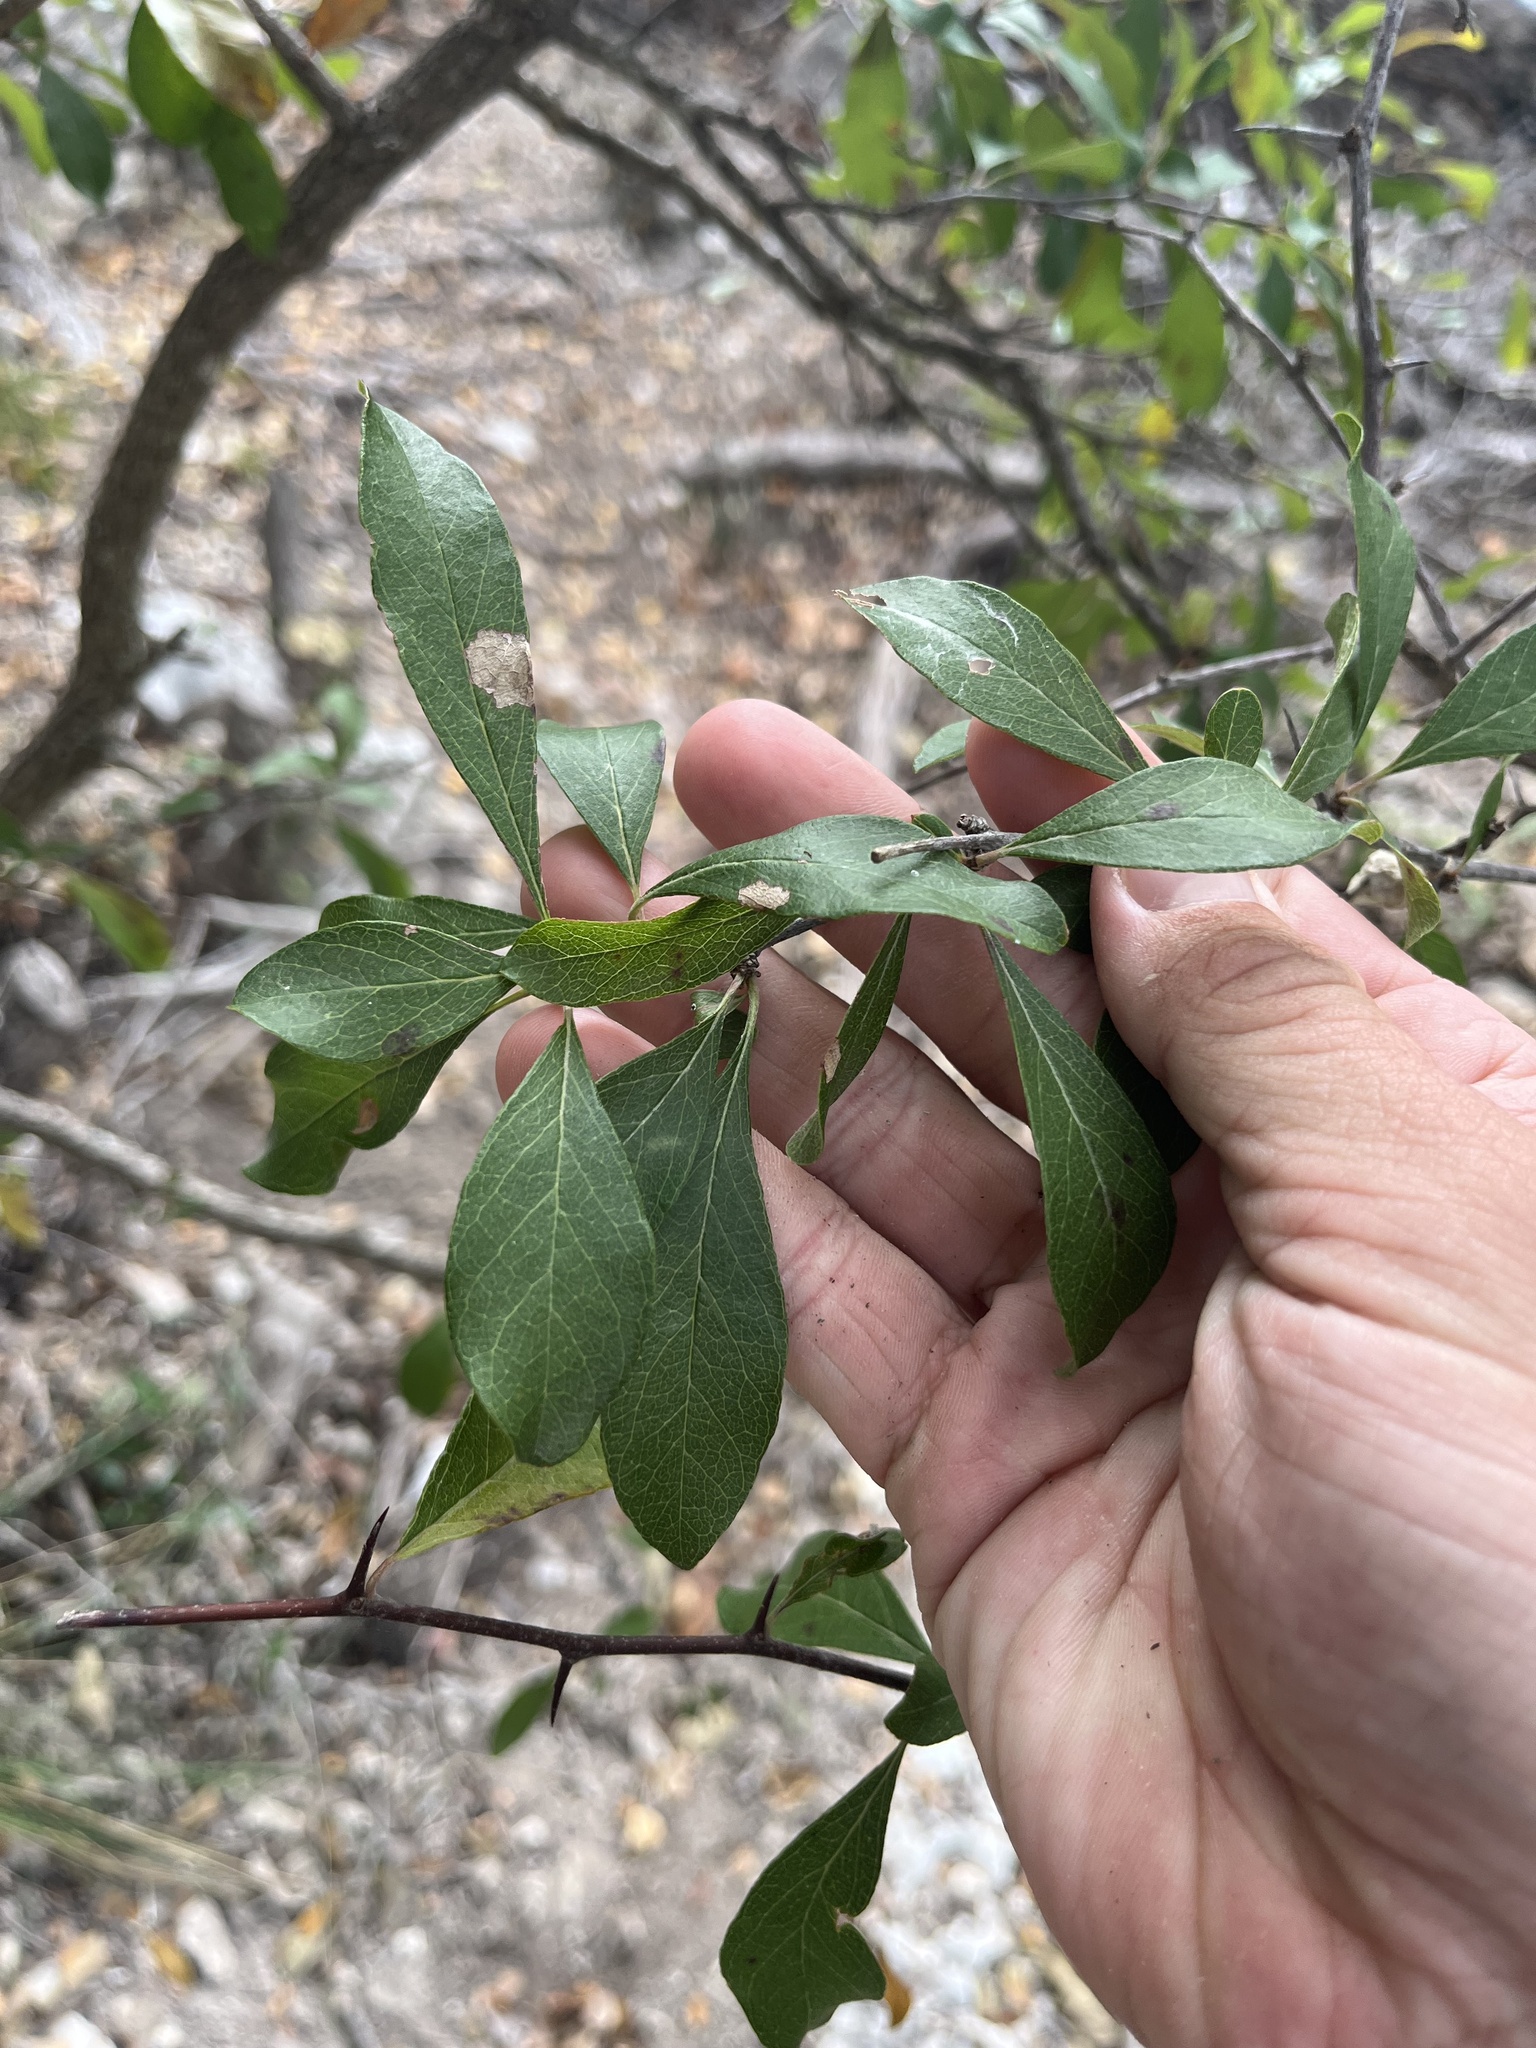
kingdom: Plantae
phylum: Tracheophyta
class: Magnoliopsida
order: Ericales
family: Sapotaceae
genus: Sideroxylon
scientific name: Sideroxylon lanuginosum
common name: Chittamwood
